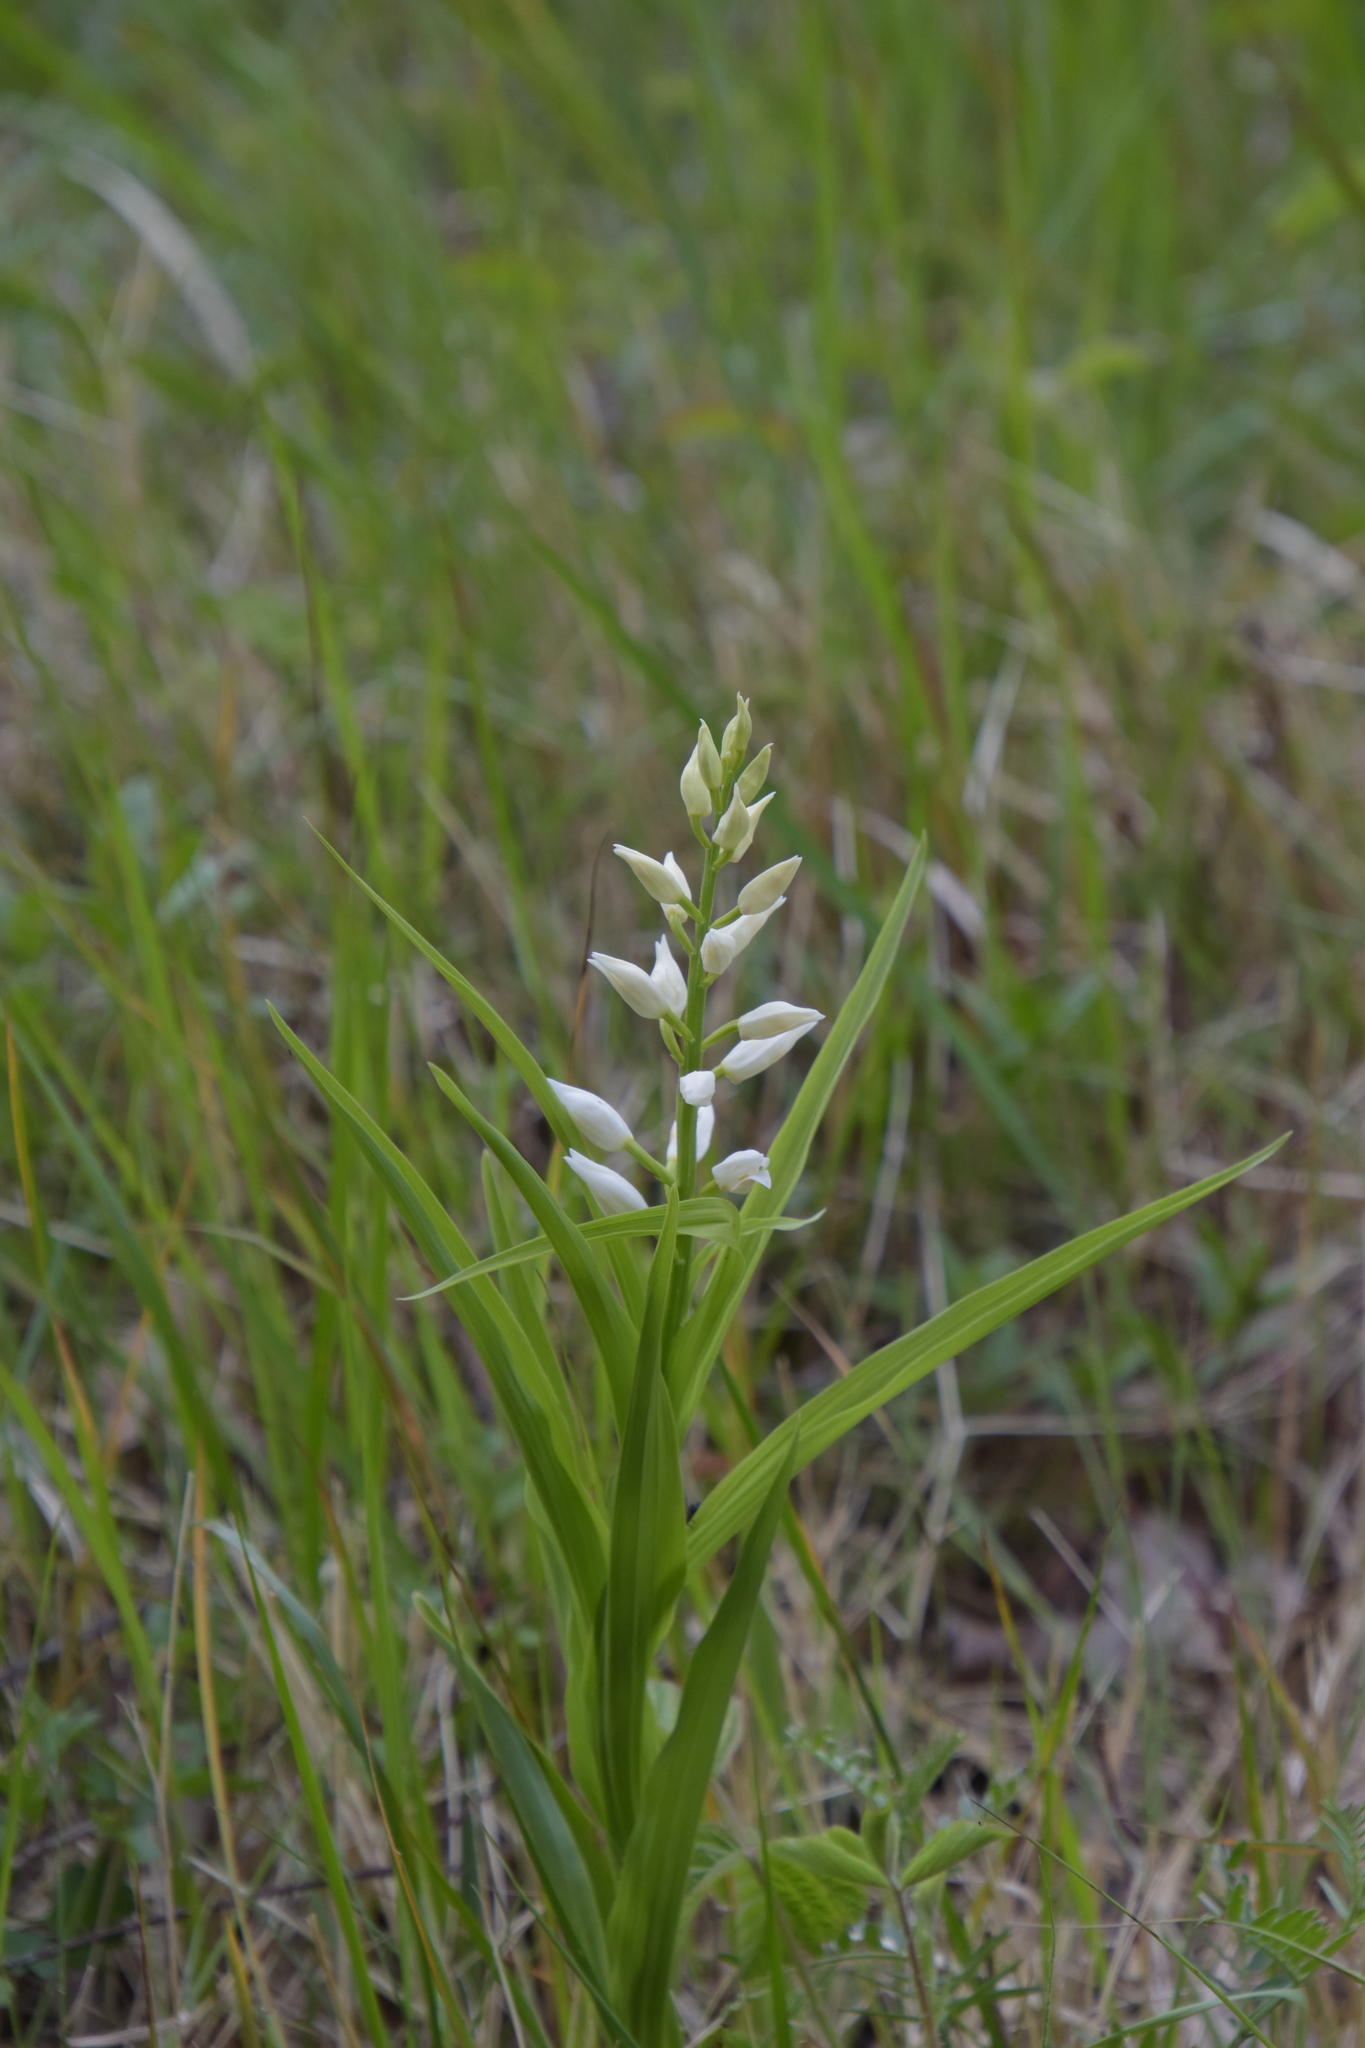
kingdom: Plantae
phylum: Tracheophyta
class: Liliopsida
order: Asparagales
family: Orchidaceae
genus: Cephalanthera
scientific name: Cephalanthera longifolia
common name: Narrow-leaved helleborine
